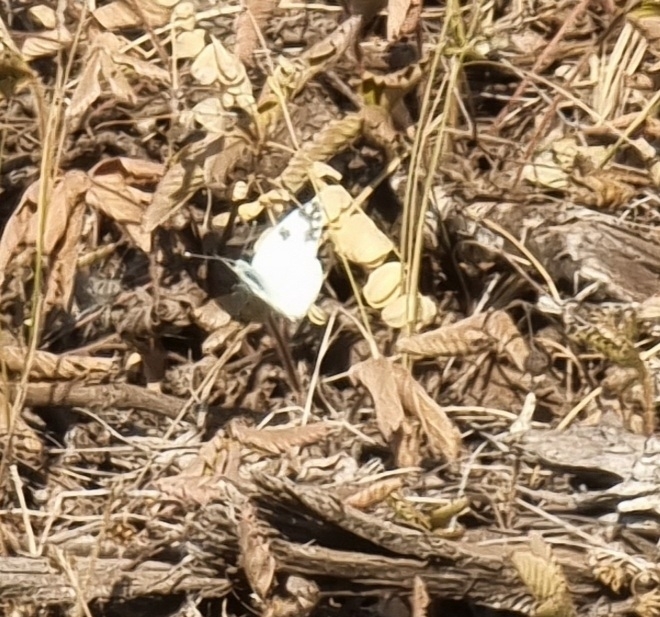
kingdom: Animalia
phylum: Arthropoda
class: Insecta
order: Lepidoptera
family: Pieridae
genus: Pontia
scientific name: Pontia edusa
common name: Eastern bath white
